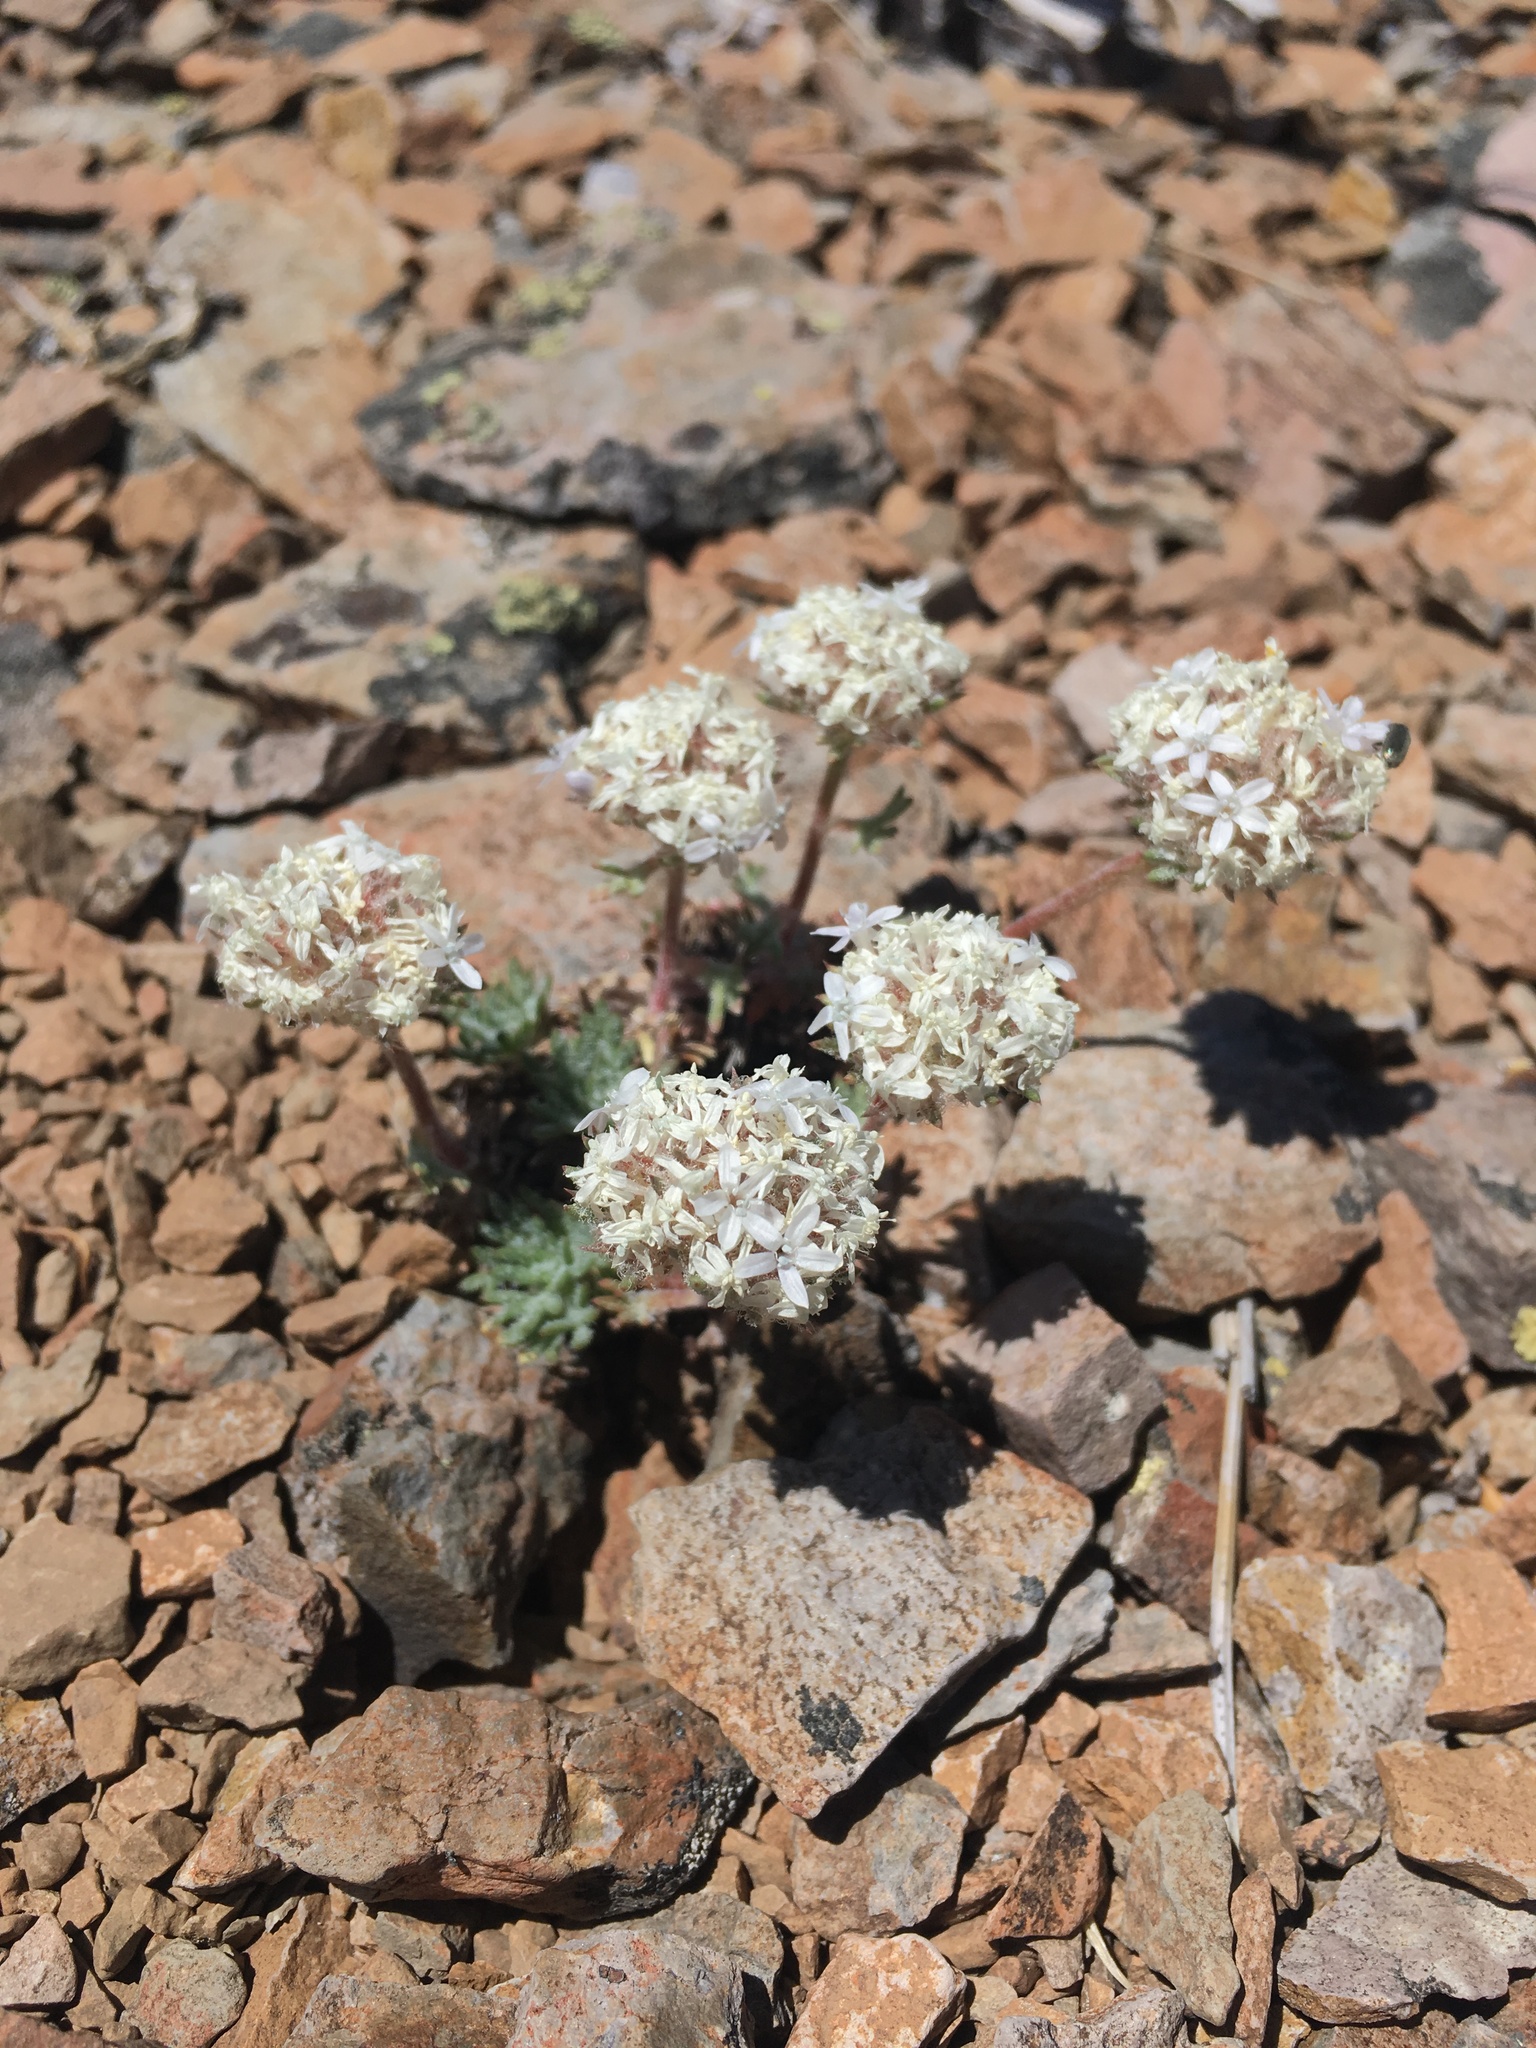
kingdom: Plantae
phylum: Tracheophyta
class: Magnoliopsida
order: Ericales
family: Polemoniaceae
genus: Ipomopsis
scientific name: Ipomopsis congesta
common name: Ball-head gilia
